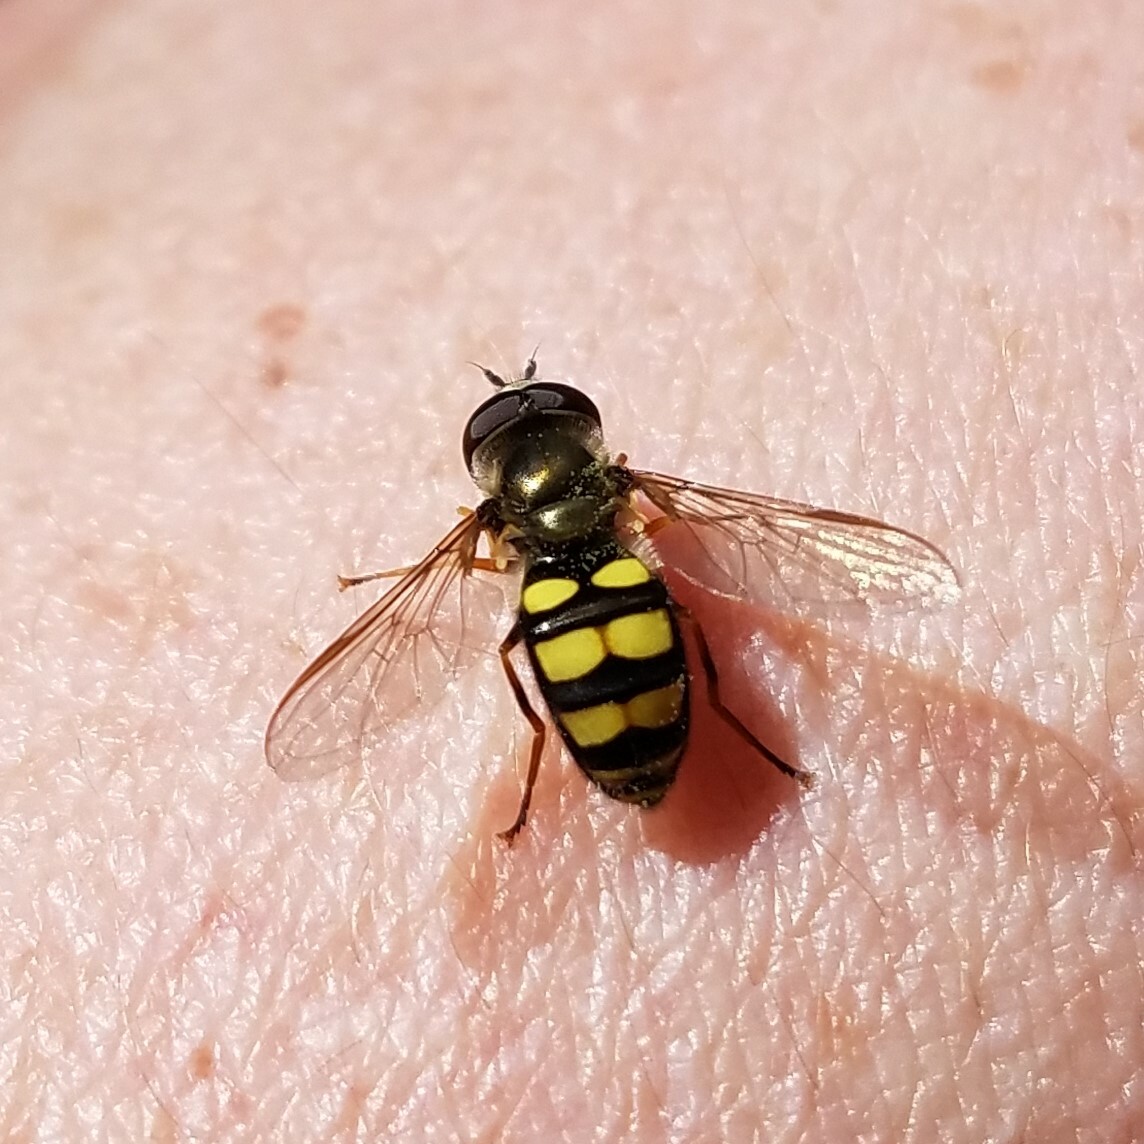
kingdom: Animalia
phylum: Arthropoda
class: Insecta
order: Diptera
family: Syrphidae
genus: Eupeodes
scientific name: Eupeodes
